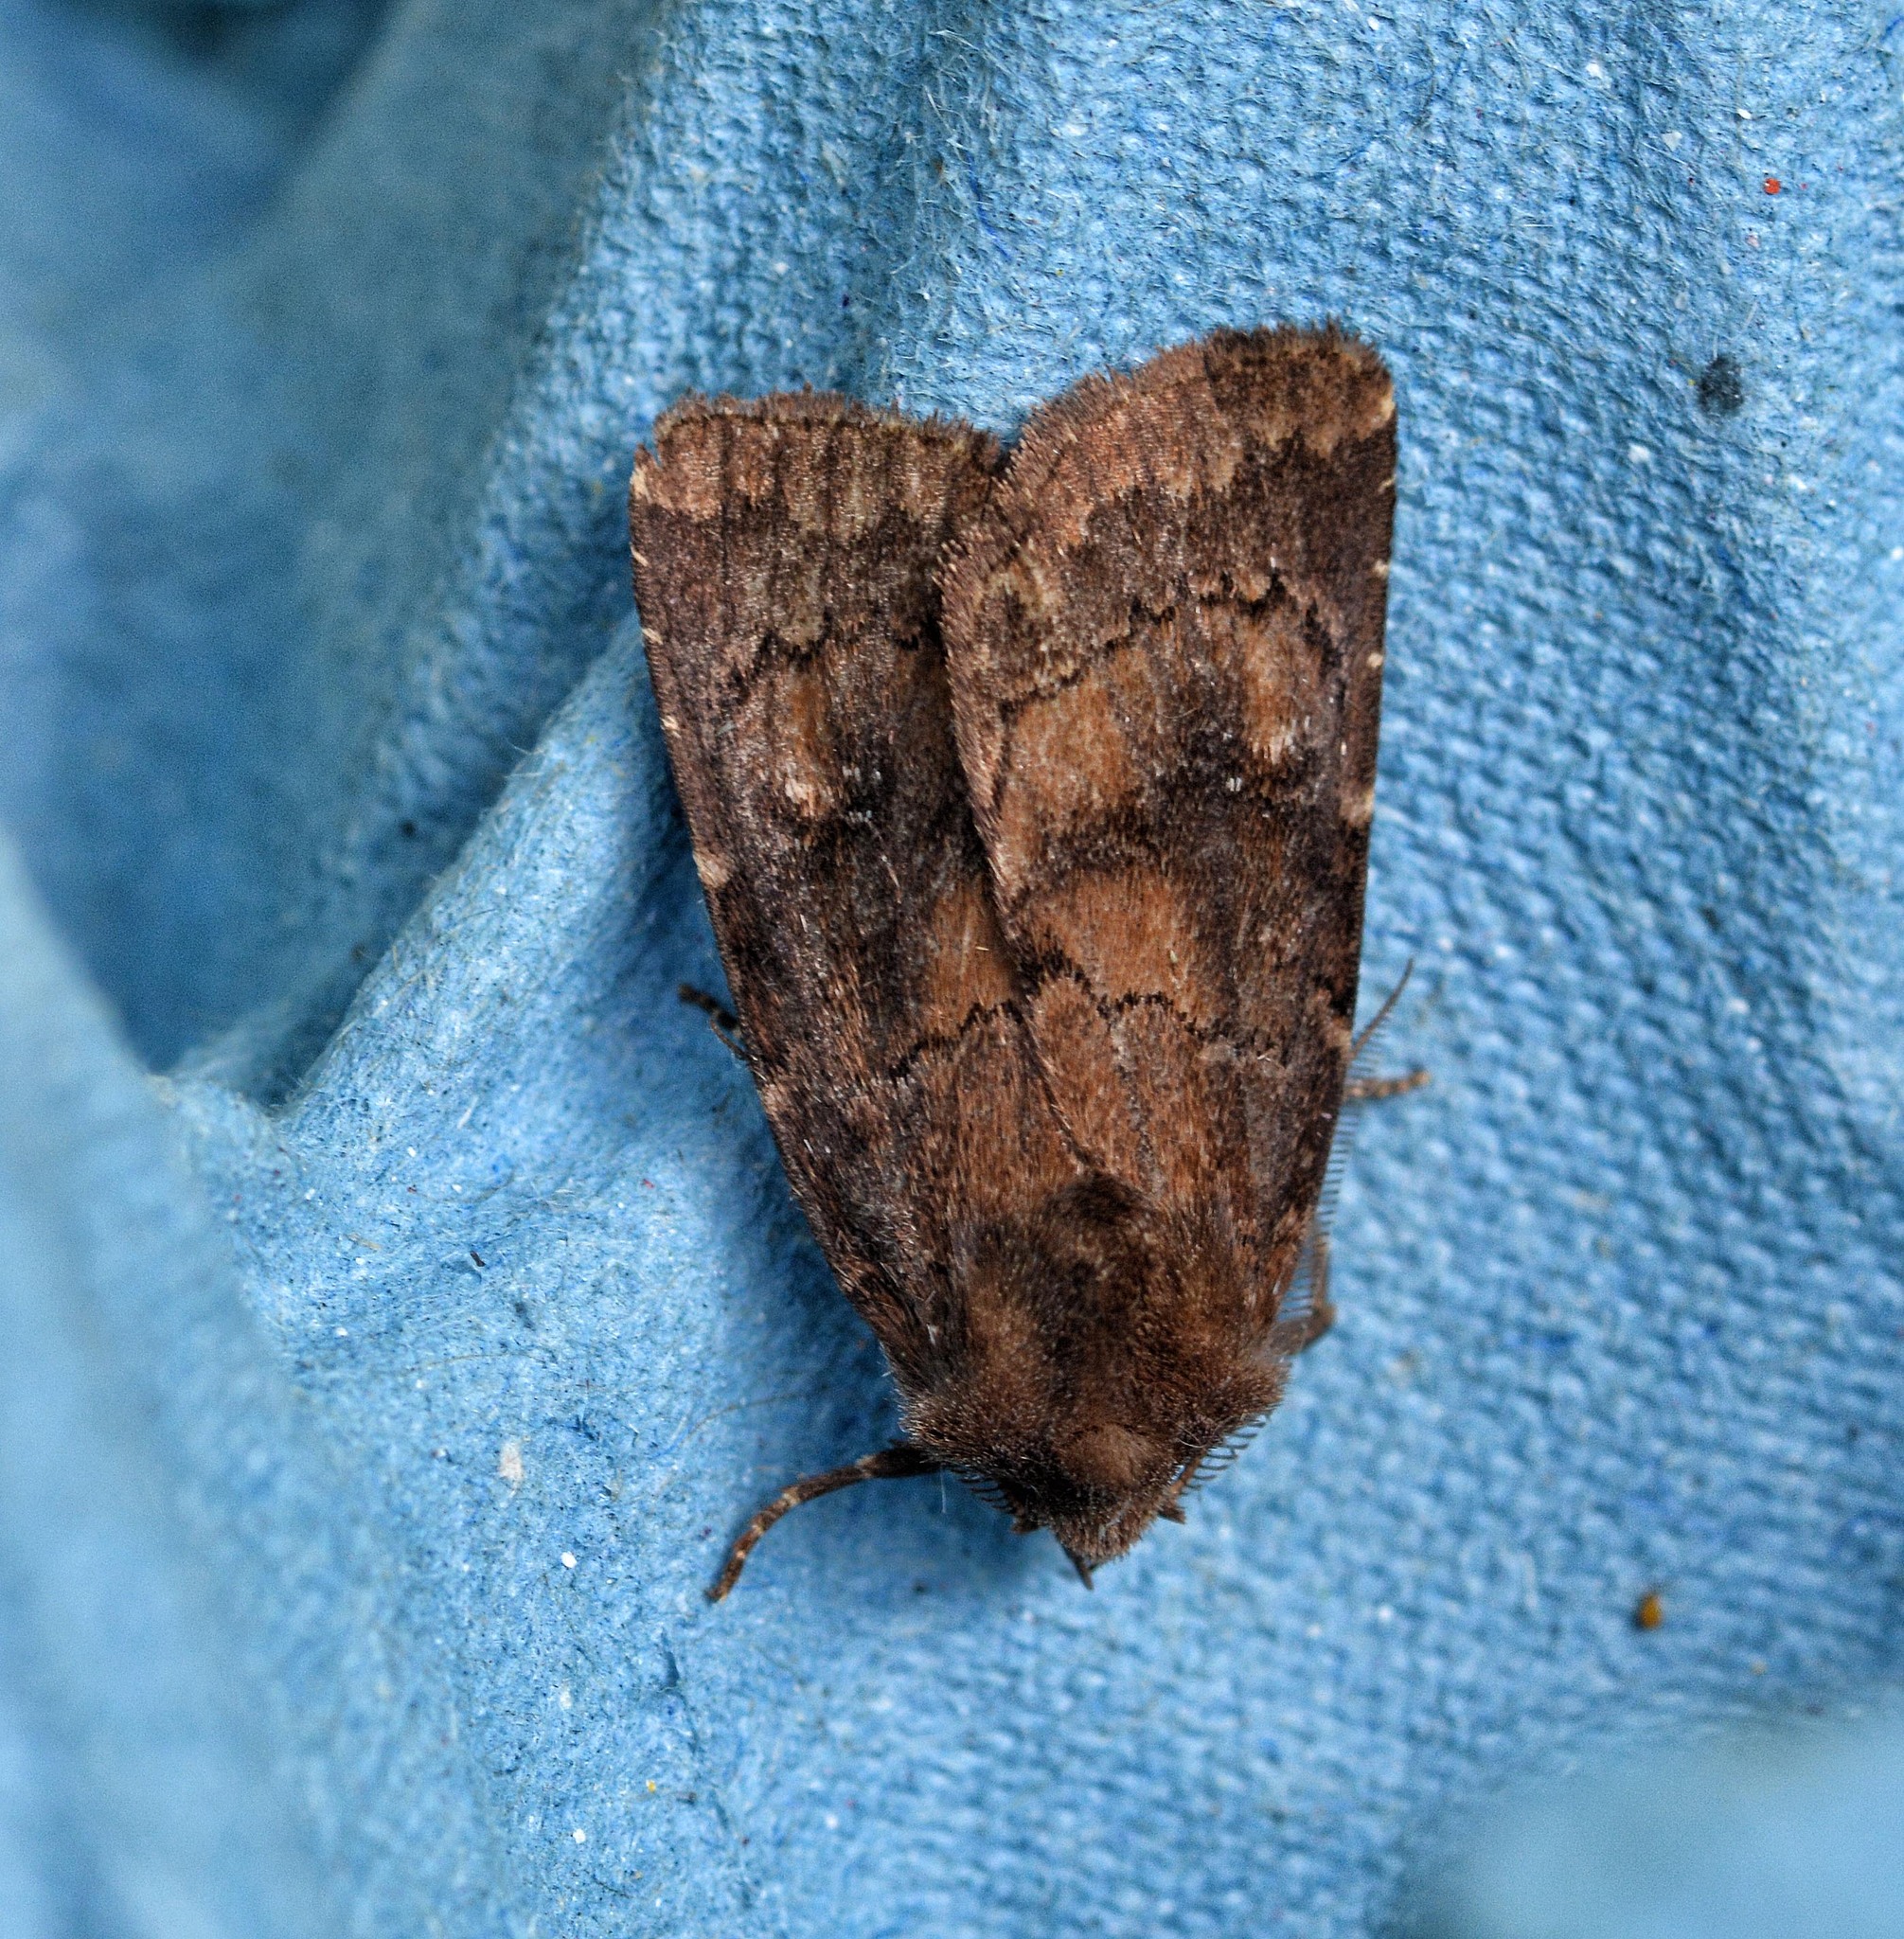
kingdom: Animalia
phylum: Arthropoda
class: Insecta
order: Lepidoptera
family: Noctuidae
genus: Charanyca
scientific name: Charanyca ferruginea
